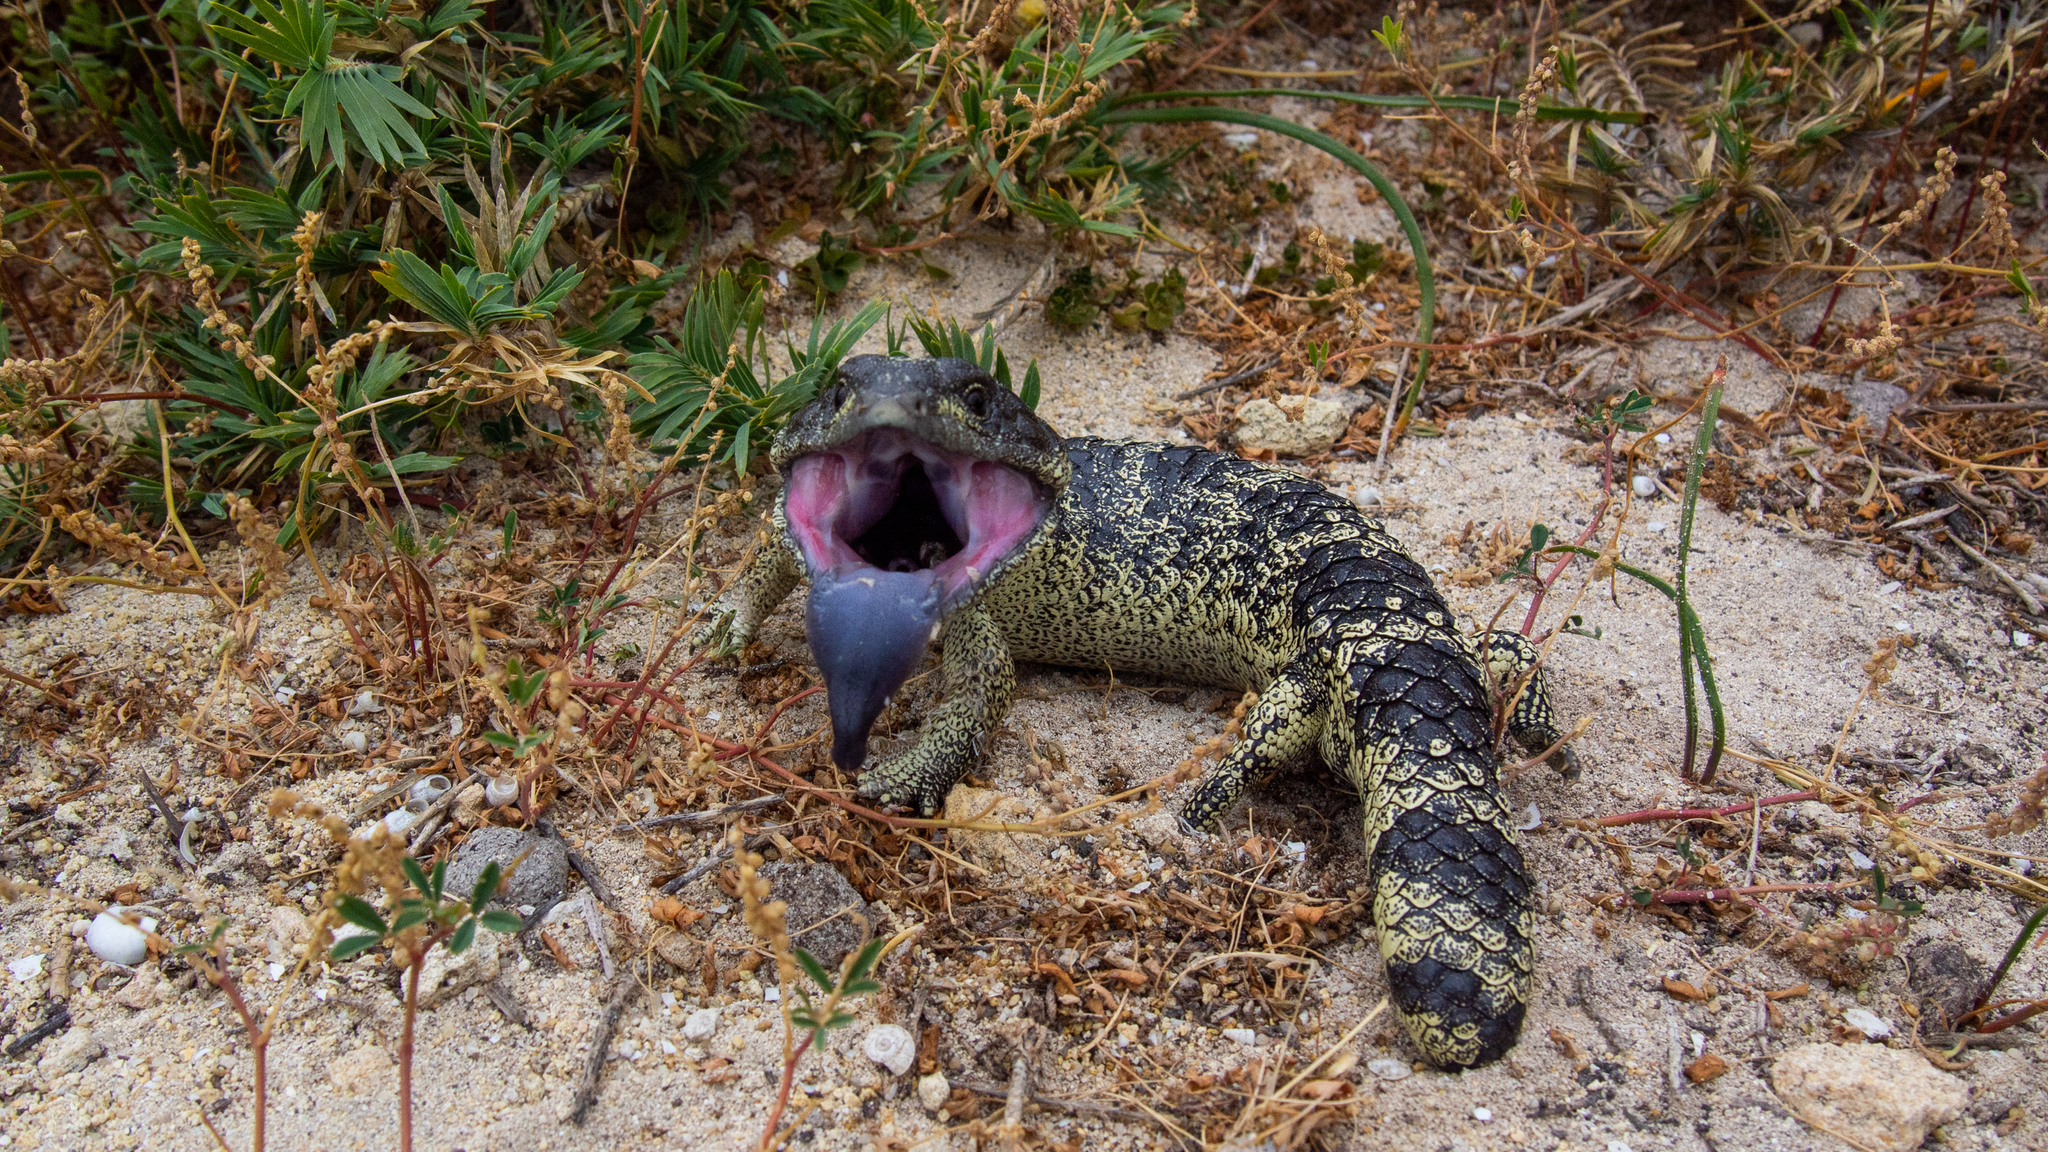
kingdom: Animalia
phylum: Chordata
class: Squamata
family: Scincidae
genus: Tiliqua
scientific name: Tiliqua rugosa
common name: Pinecone lizard
